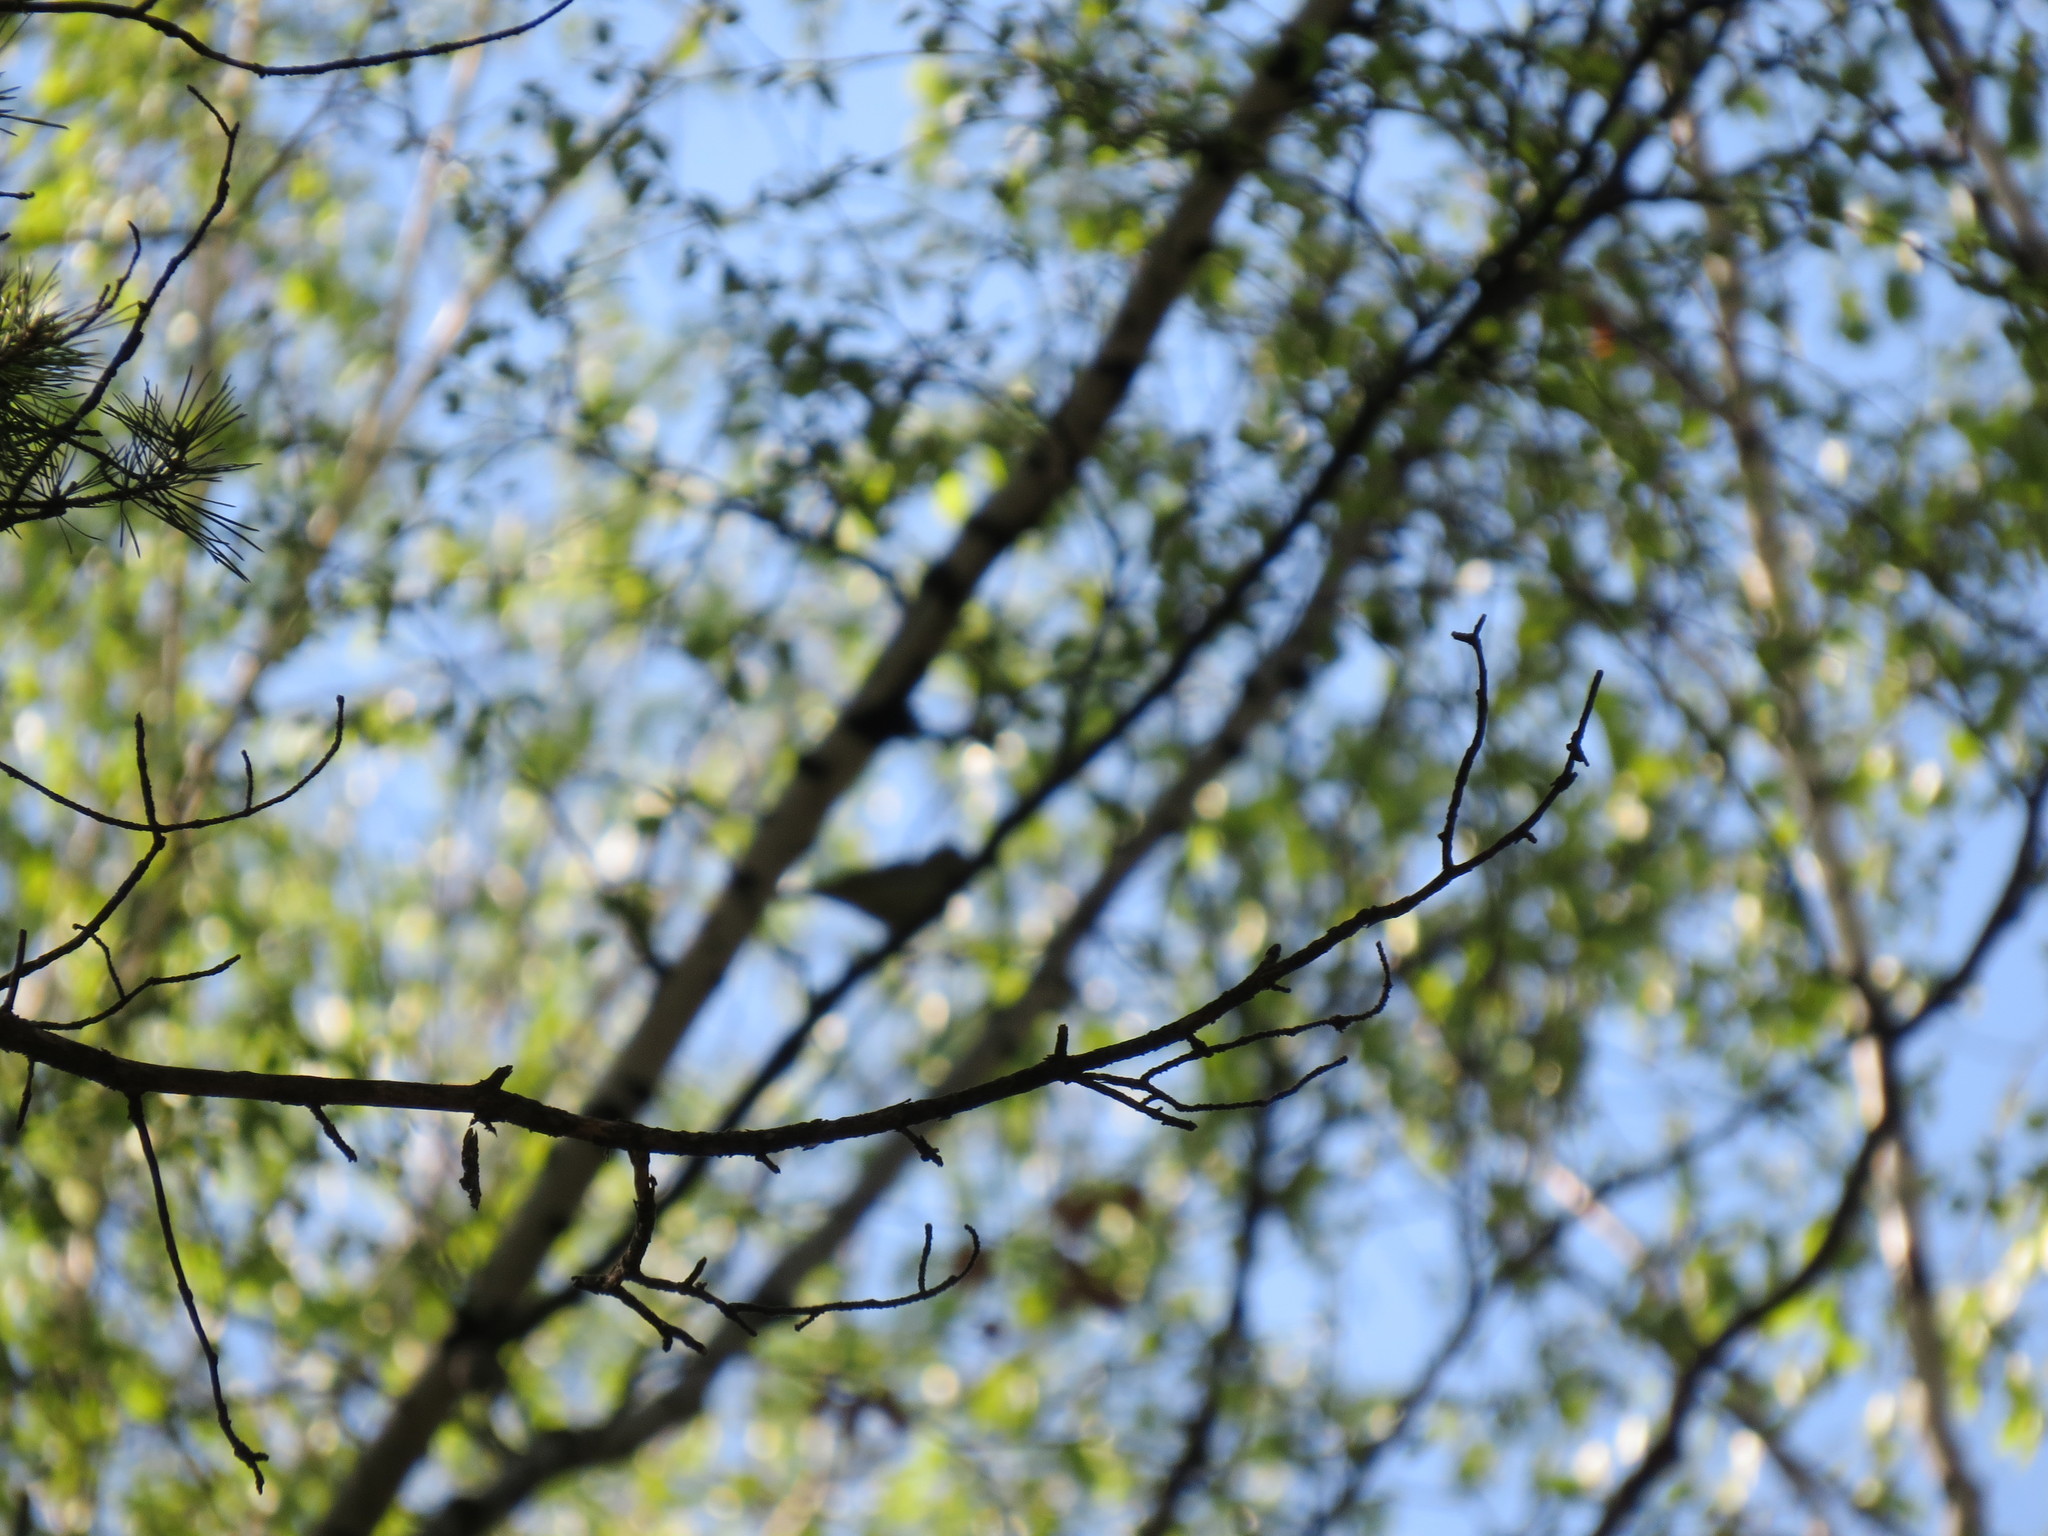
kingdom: Animalia
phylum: Chordata
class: Aves
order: Passeriformes
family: Acrocephalidae
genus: Hippolais
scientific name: Hippolais icterina
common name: Icterine warbler
